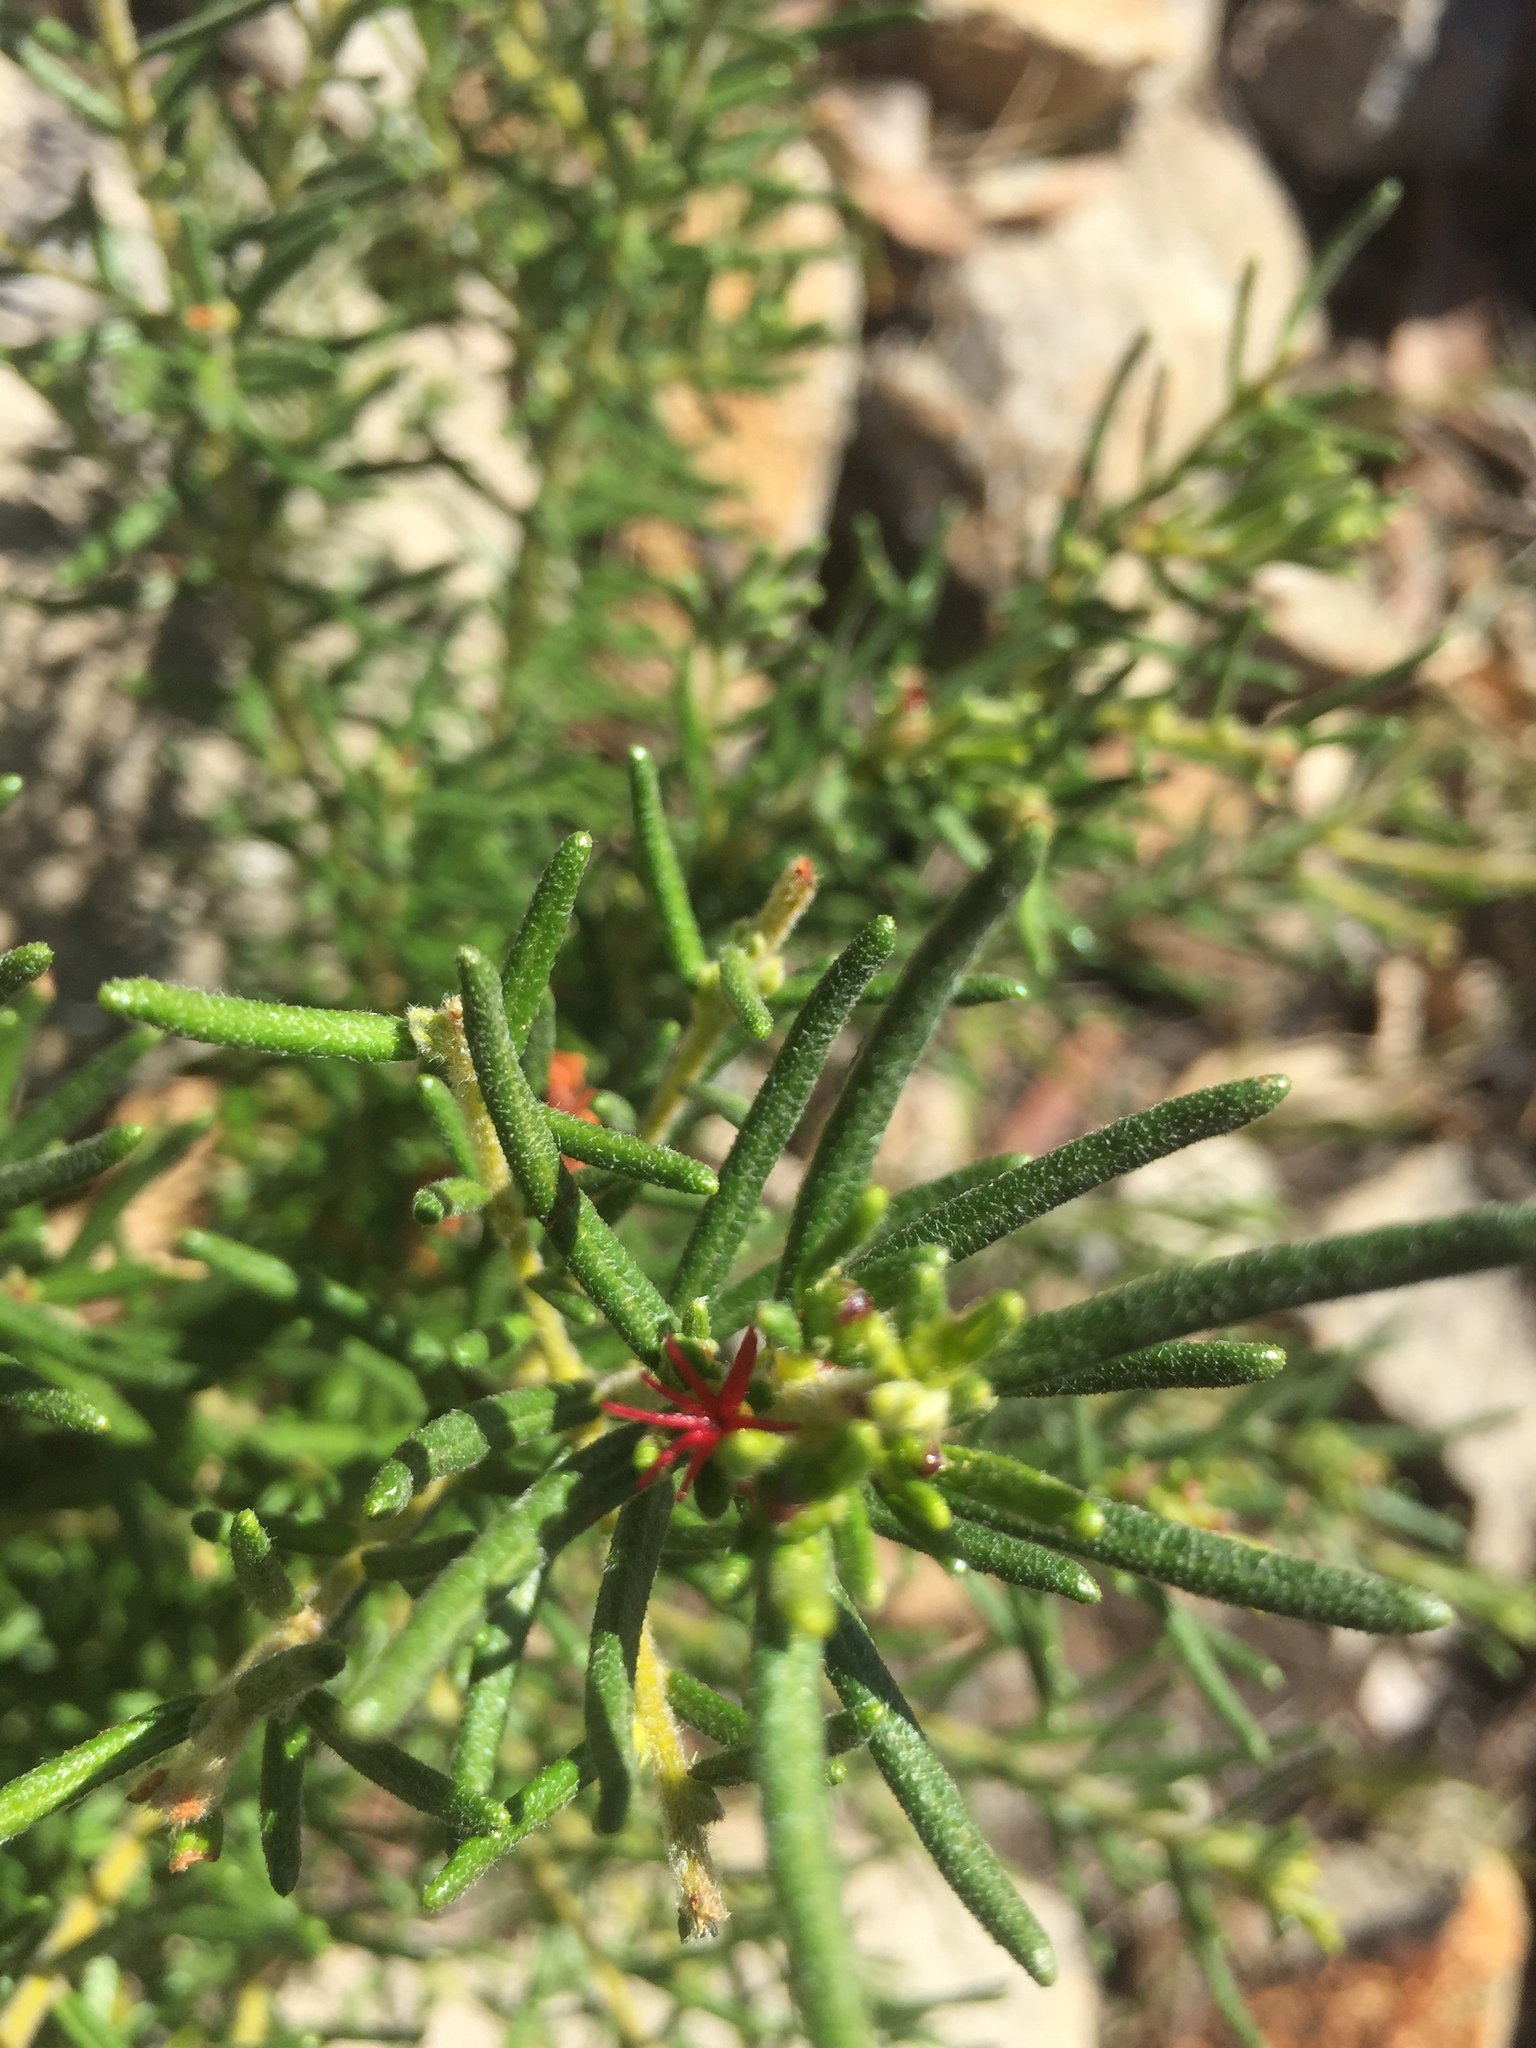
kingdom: Plantae
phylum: Tracheophyta
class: Magnoliopsida
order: Malpighiales
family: Euphorbiaceae
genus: Bertya
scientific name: Bertya gummifera
